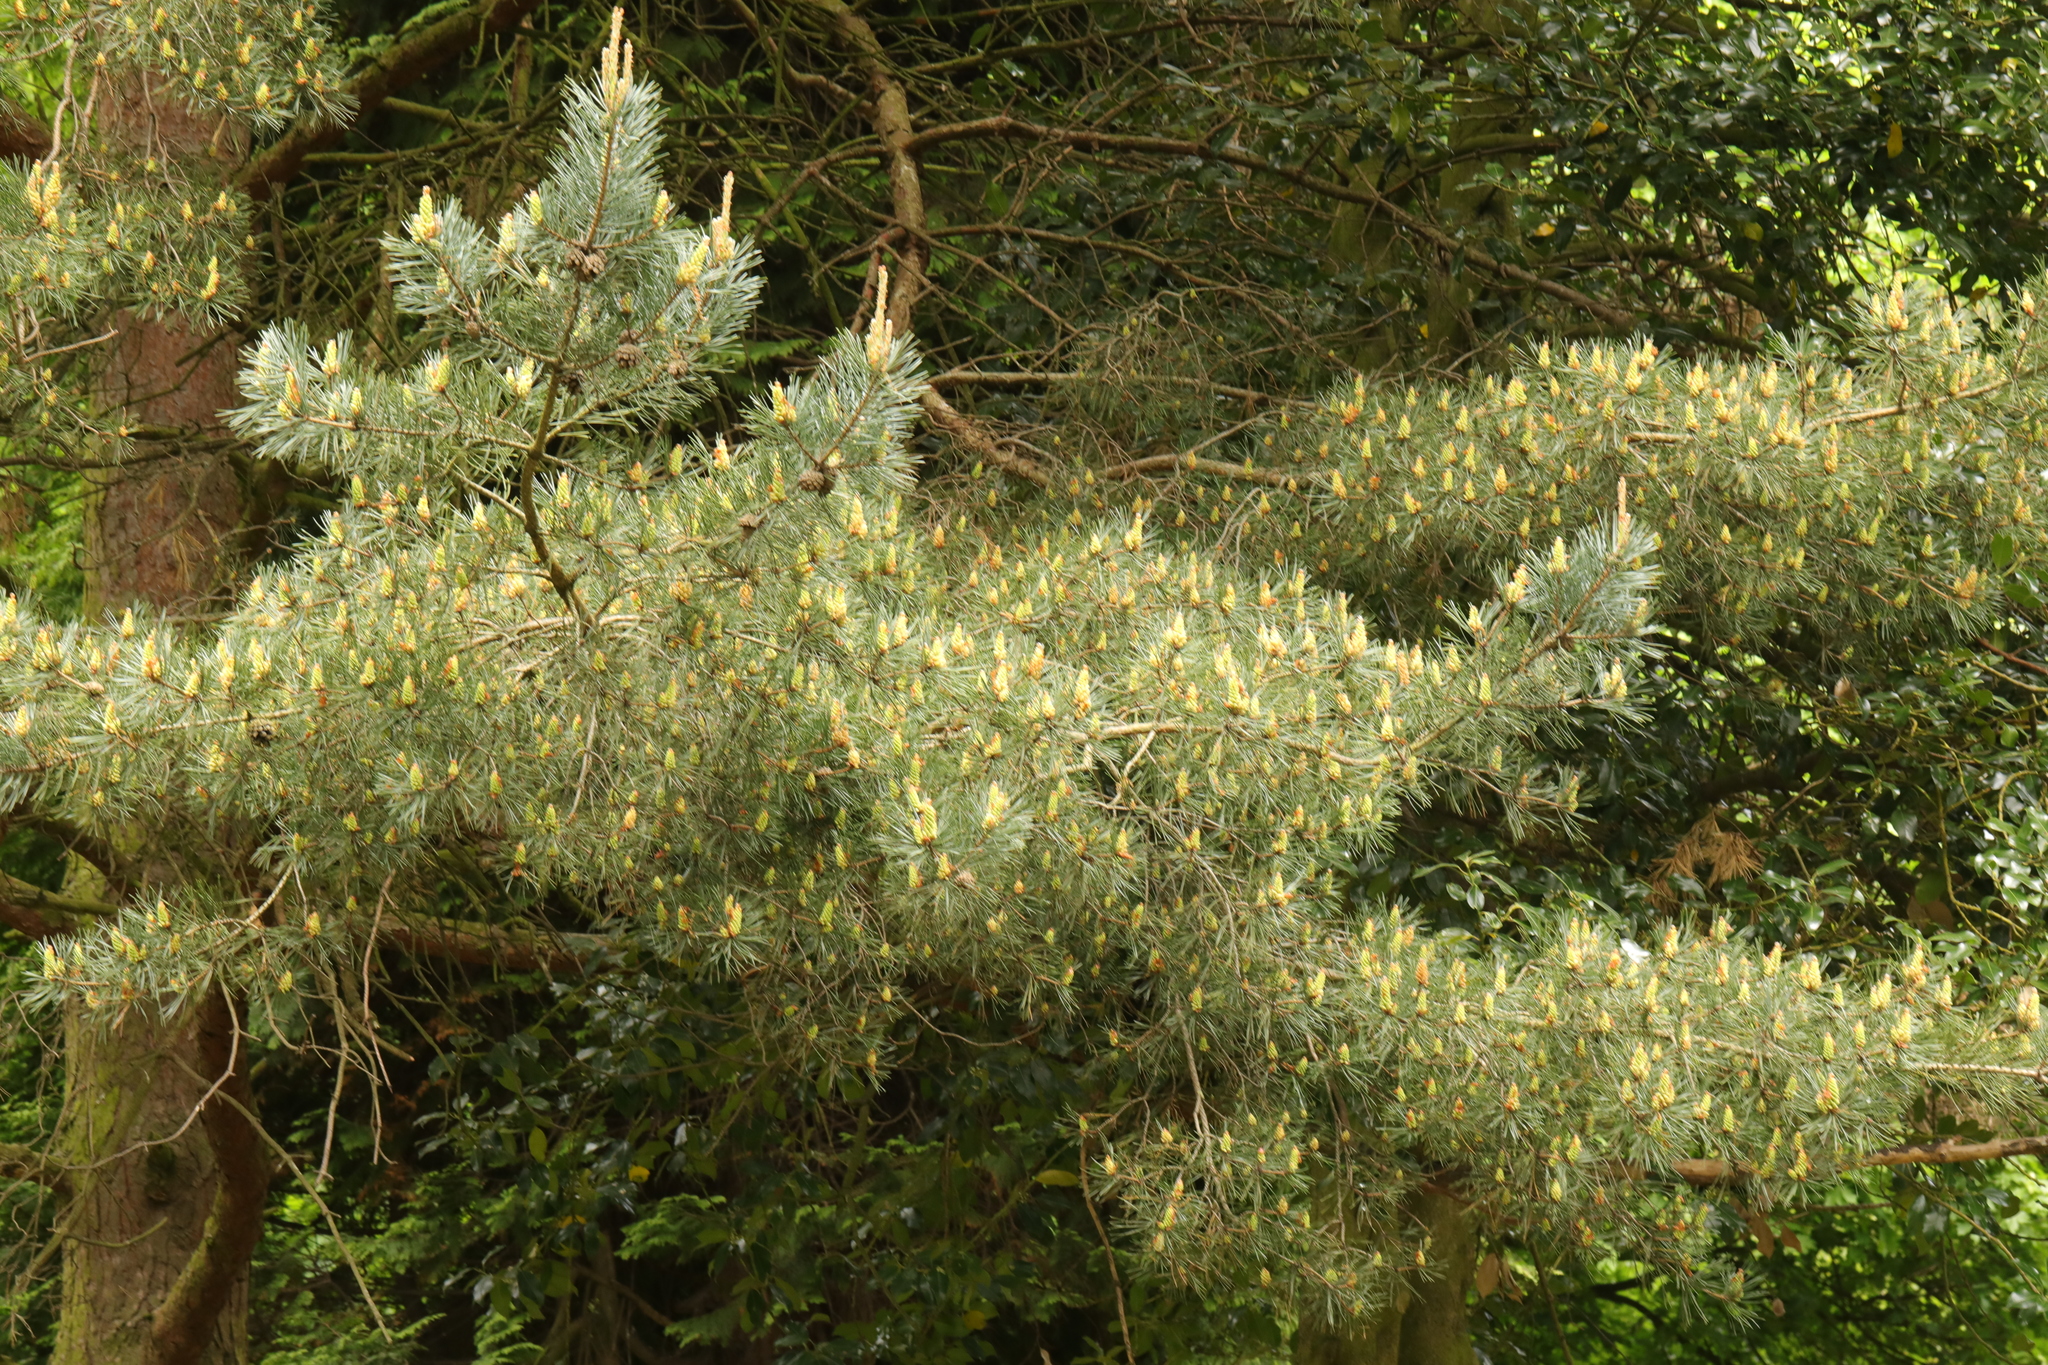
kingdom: Plantae
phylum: Tracheophyta
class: Pinopsida
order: Pinales
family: Pinaceae
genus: Pinus
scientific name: Pinus sylvestris
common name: Scots pine
